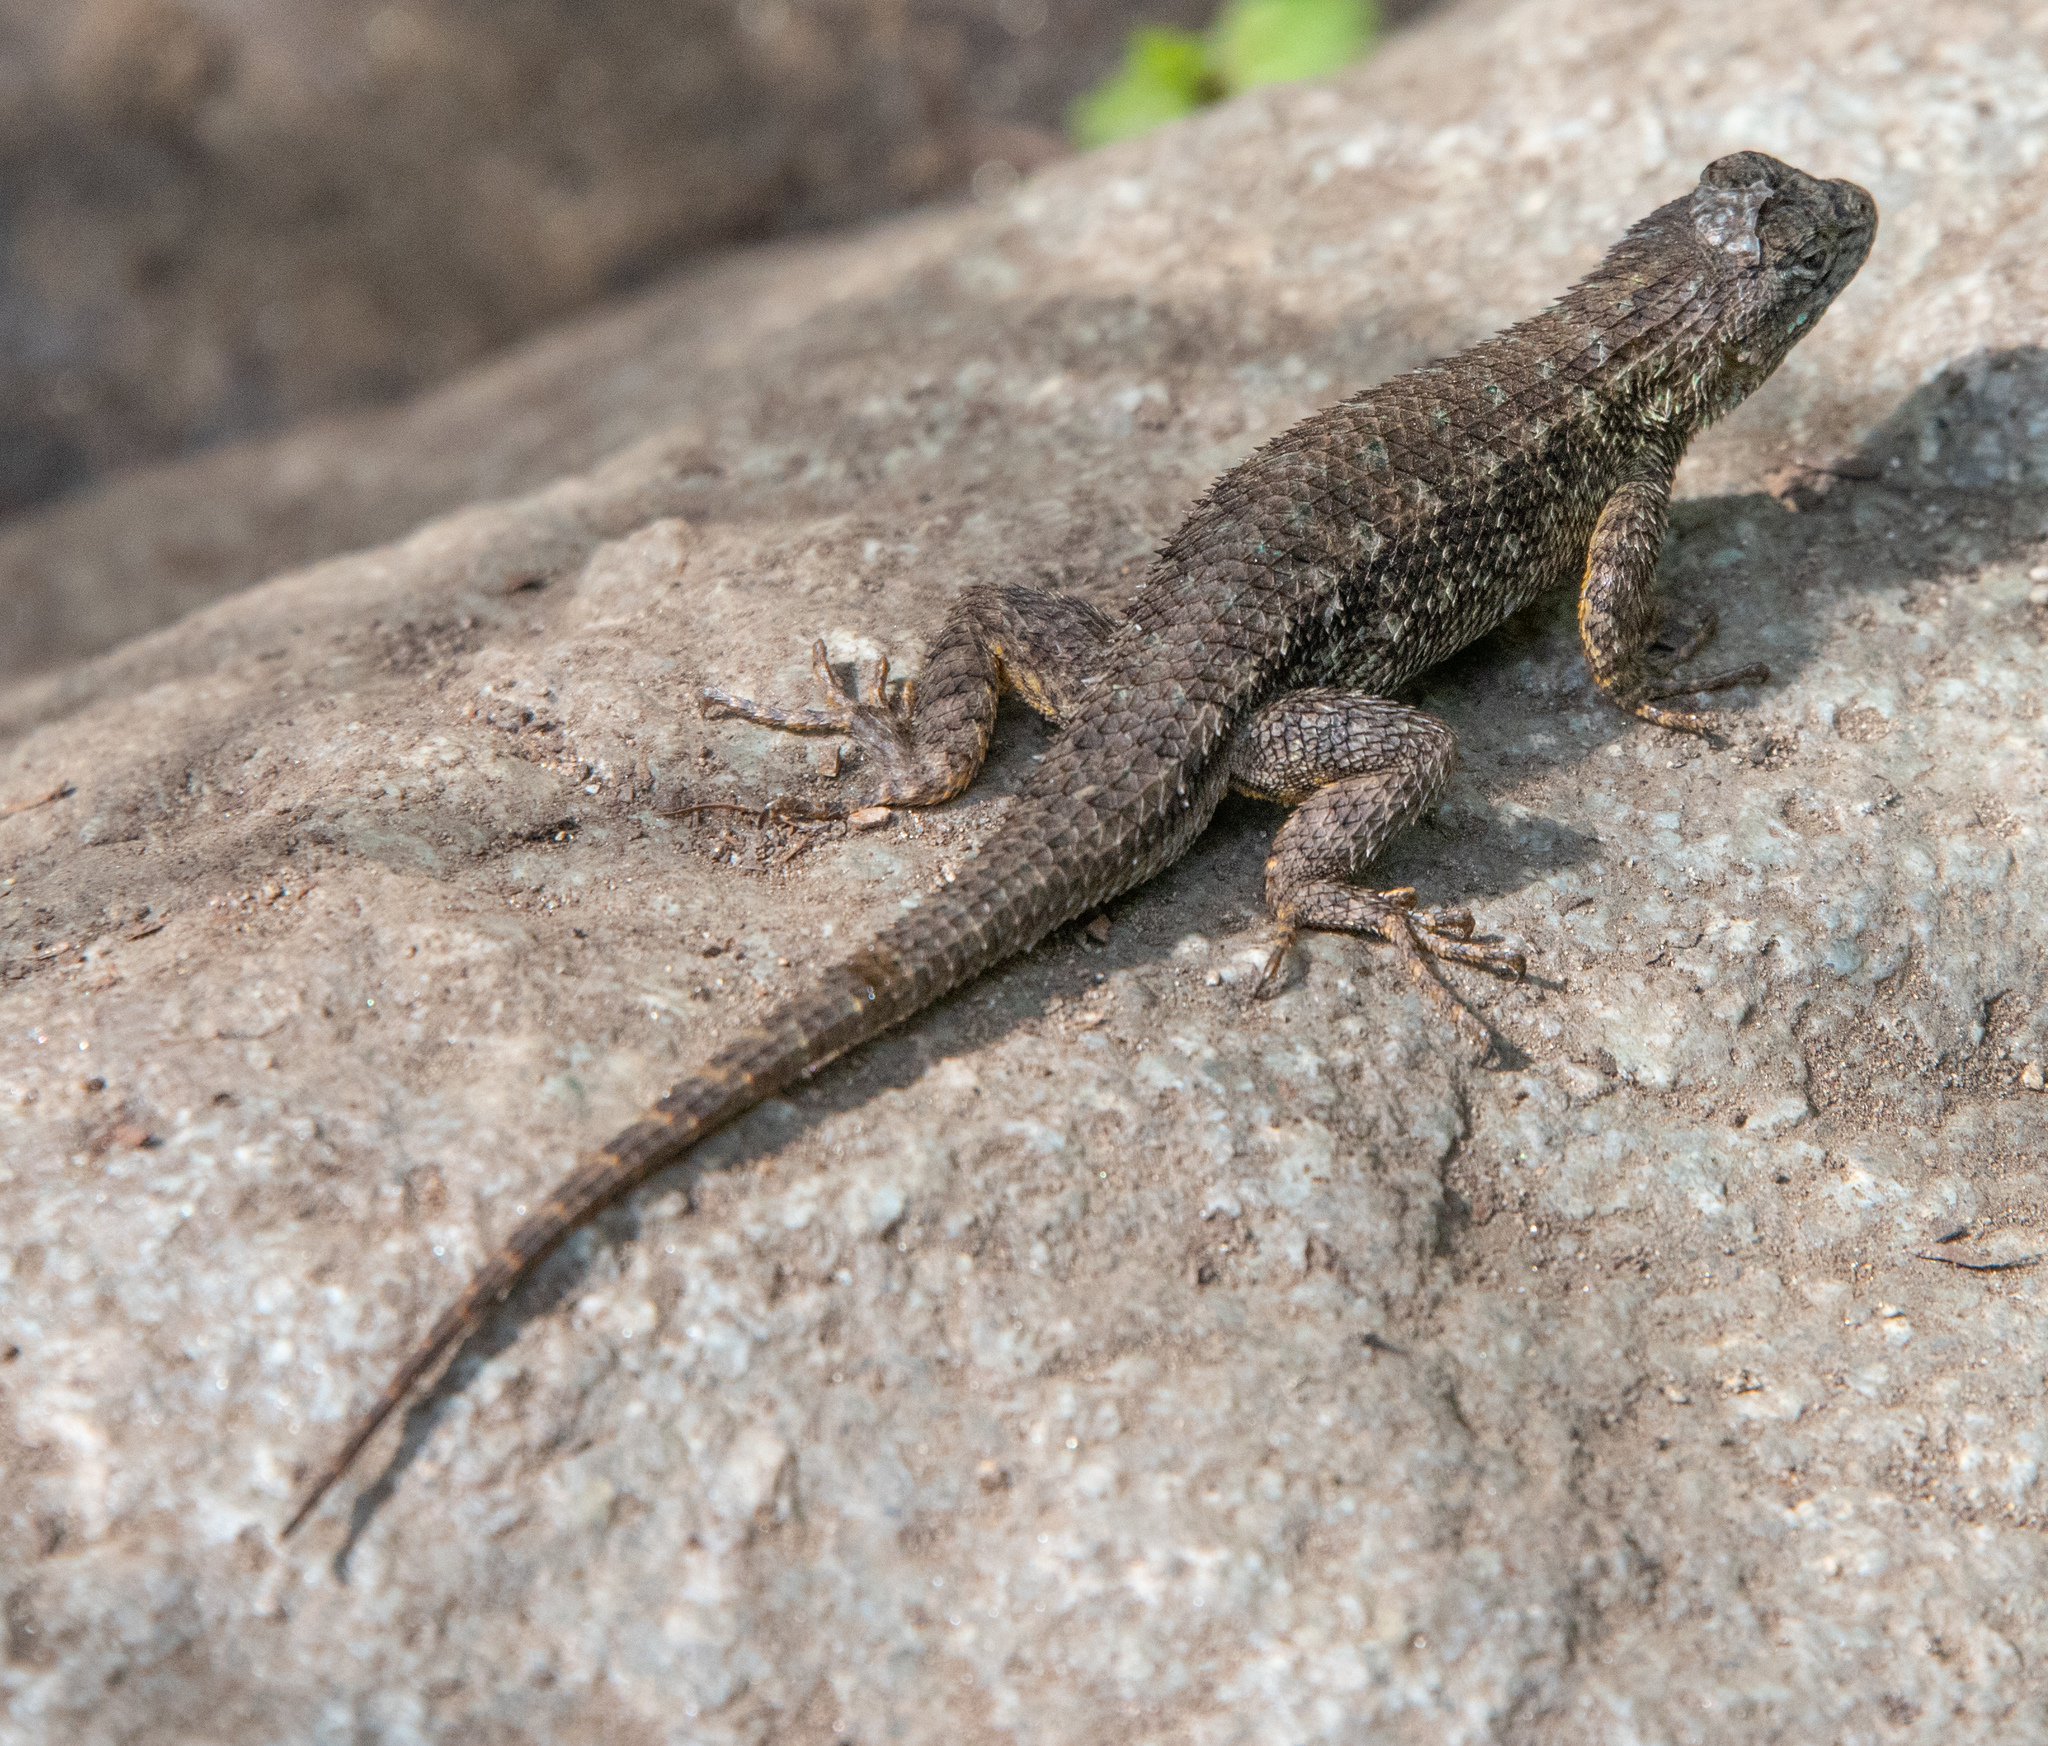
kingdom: Animalia
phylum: Chordata
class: Squamata
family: Phrynosomatidae
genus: Sceloporus
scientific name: Sceloporus occidentalis
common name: Western fence lizard
